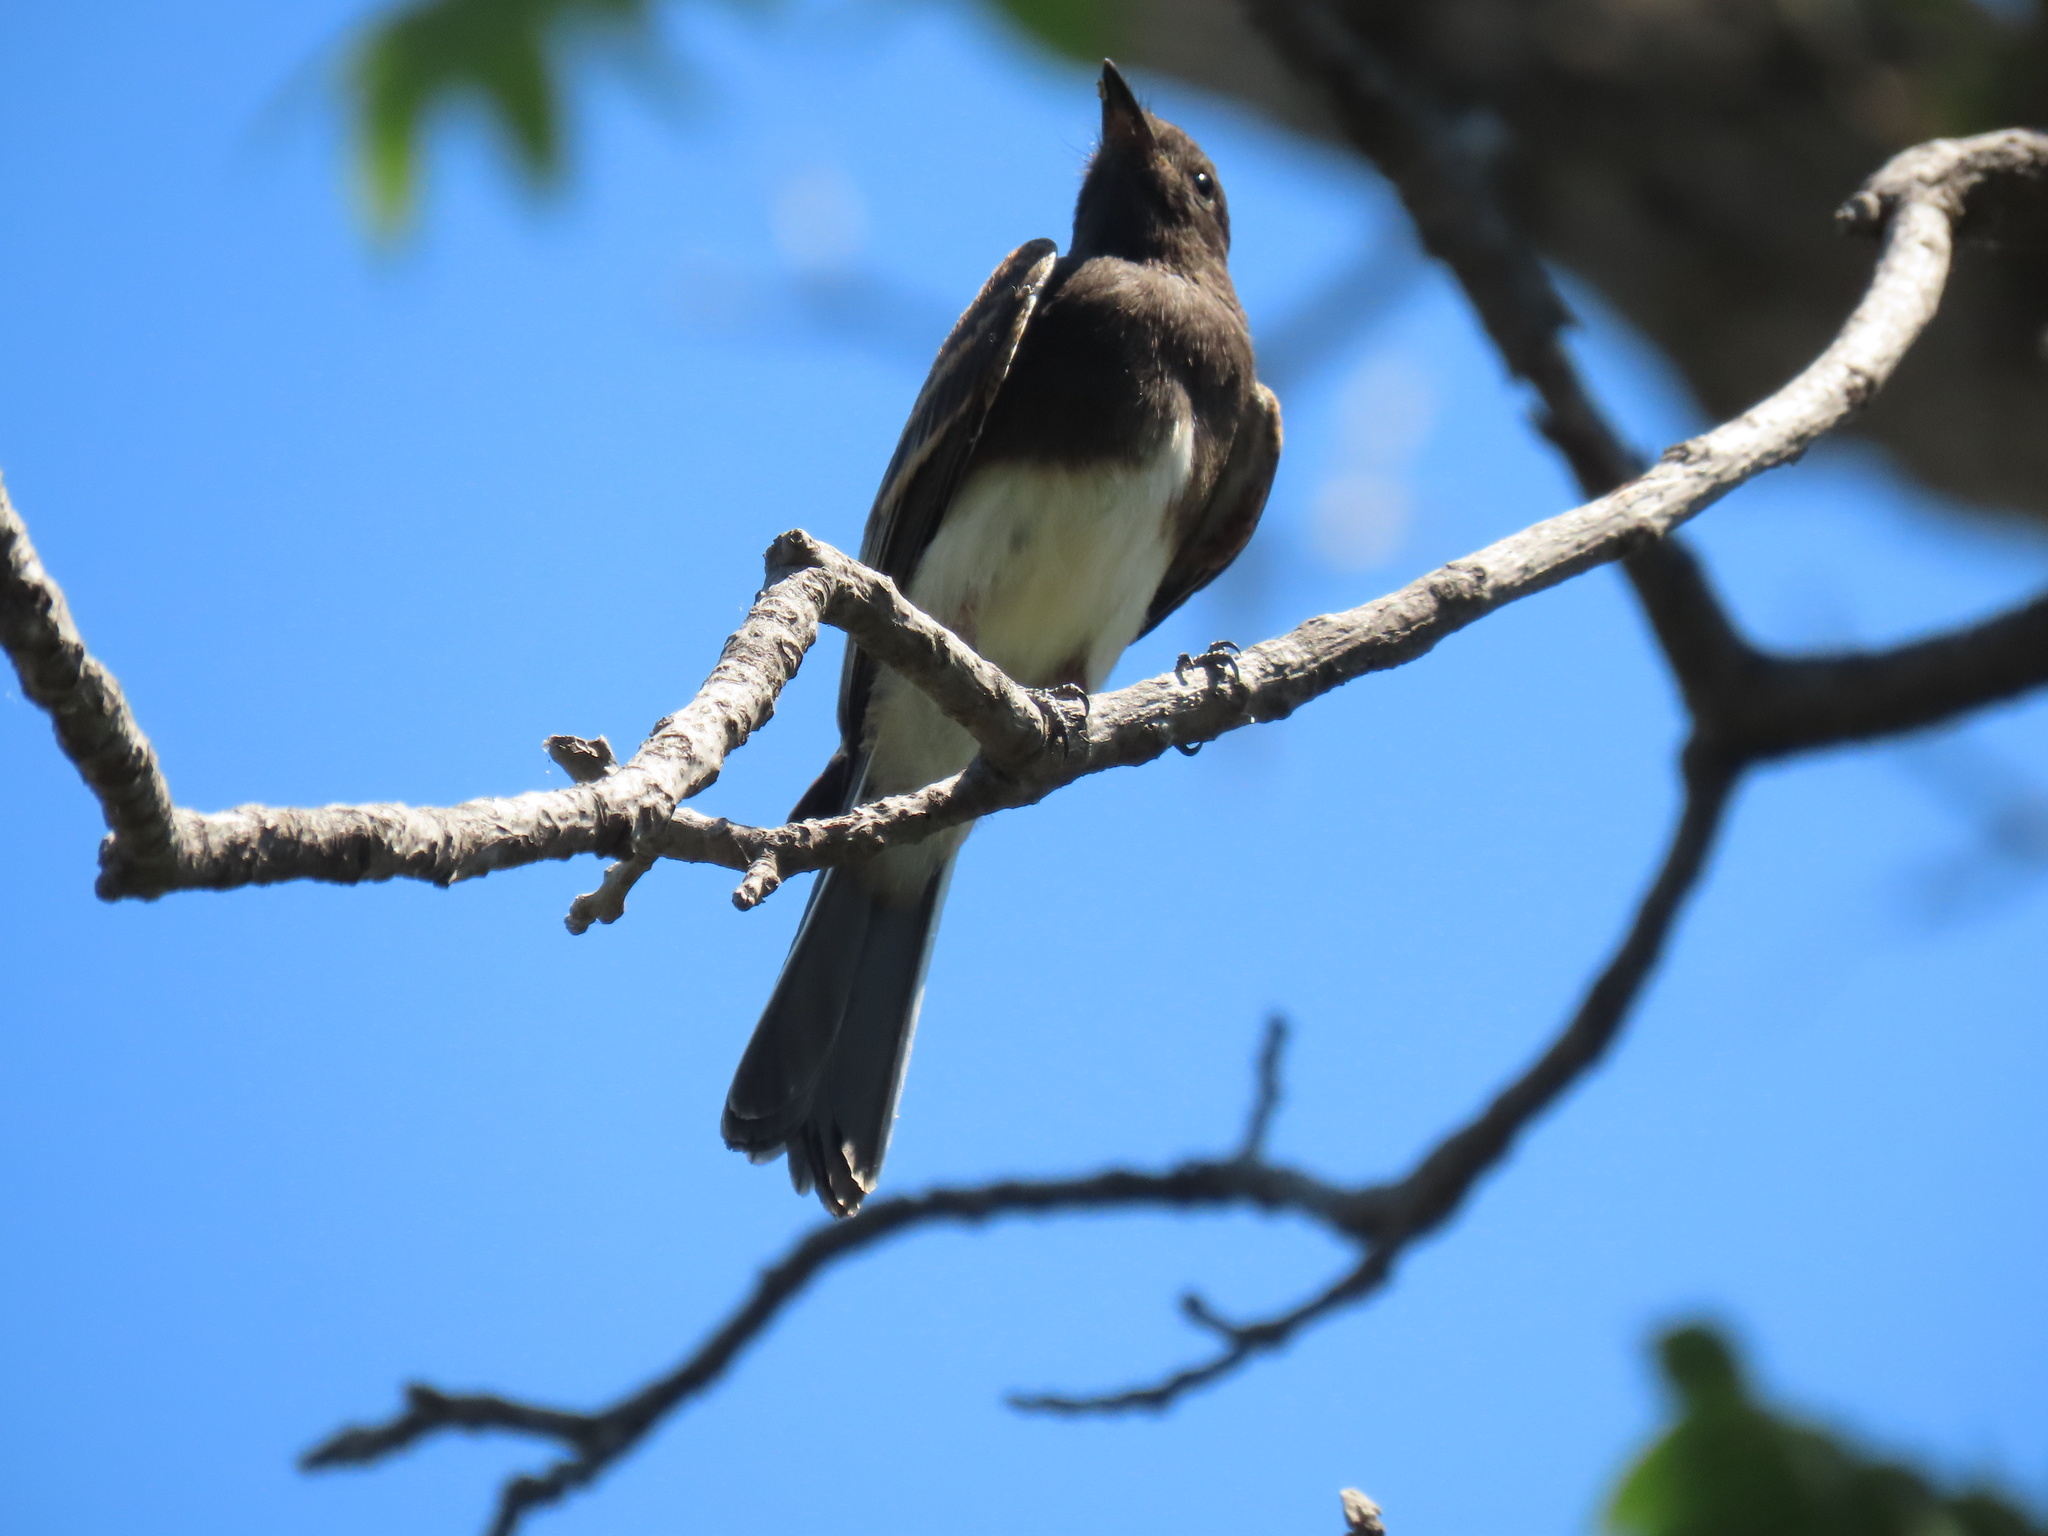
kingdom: Animalia
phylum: Chordata
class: Aves
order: Passeriformes
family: Tyrannidae
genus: Sayornis
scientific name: Sayornis nigricans
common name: Black phoebe
